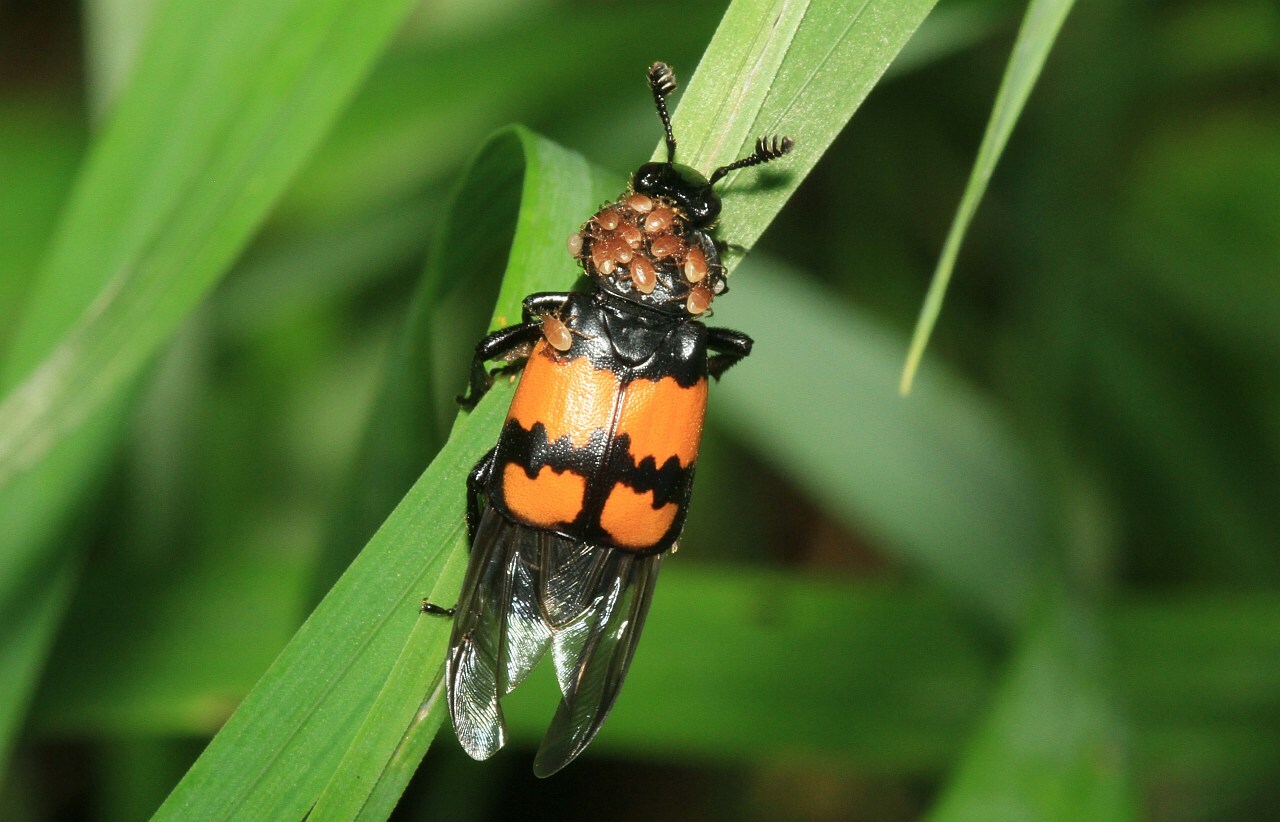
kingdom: Animalia
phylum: Arthropoda
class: Insecta
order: Coleoptera
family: Staphylinidae
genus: Nicrophorus
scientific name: Nicrophorus vespilloides
